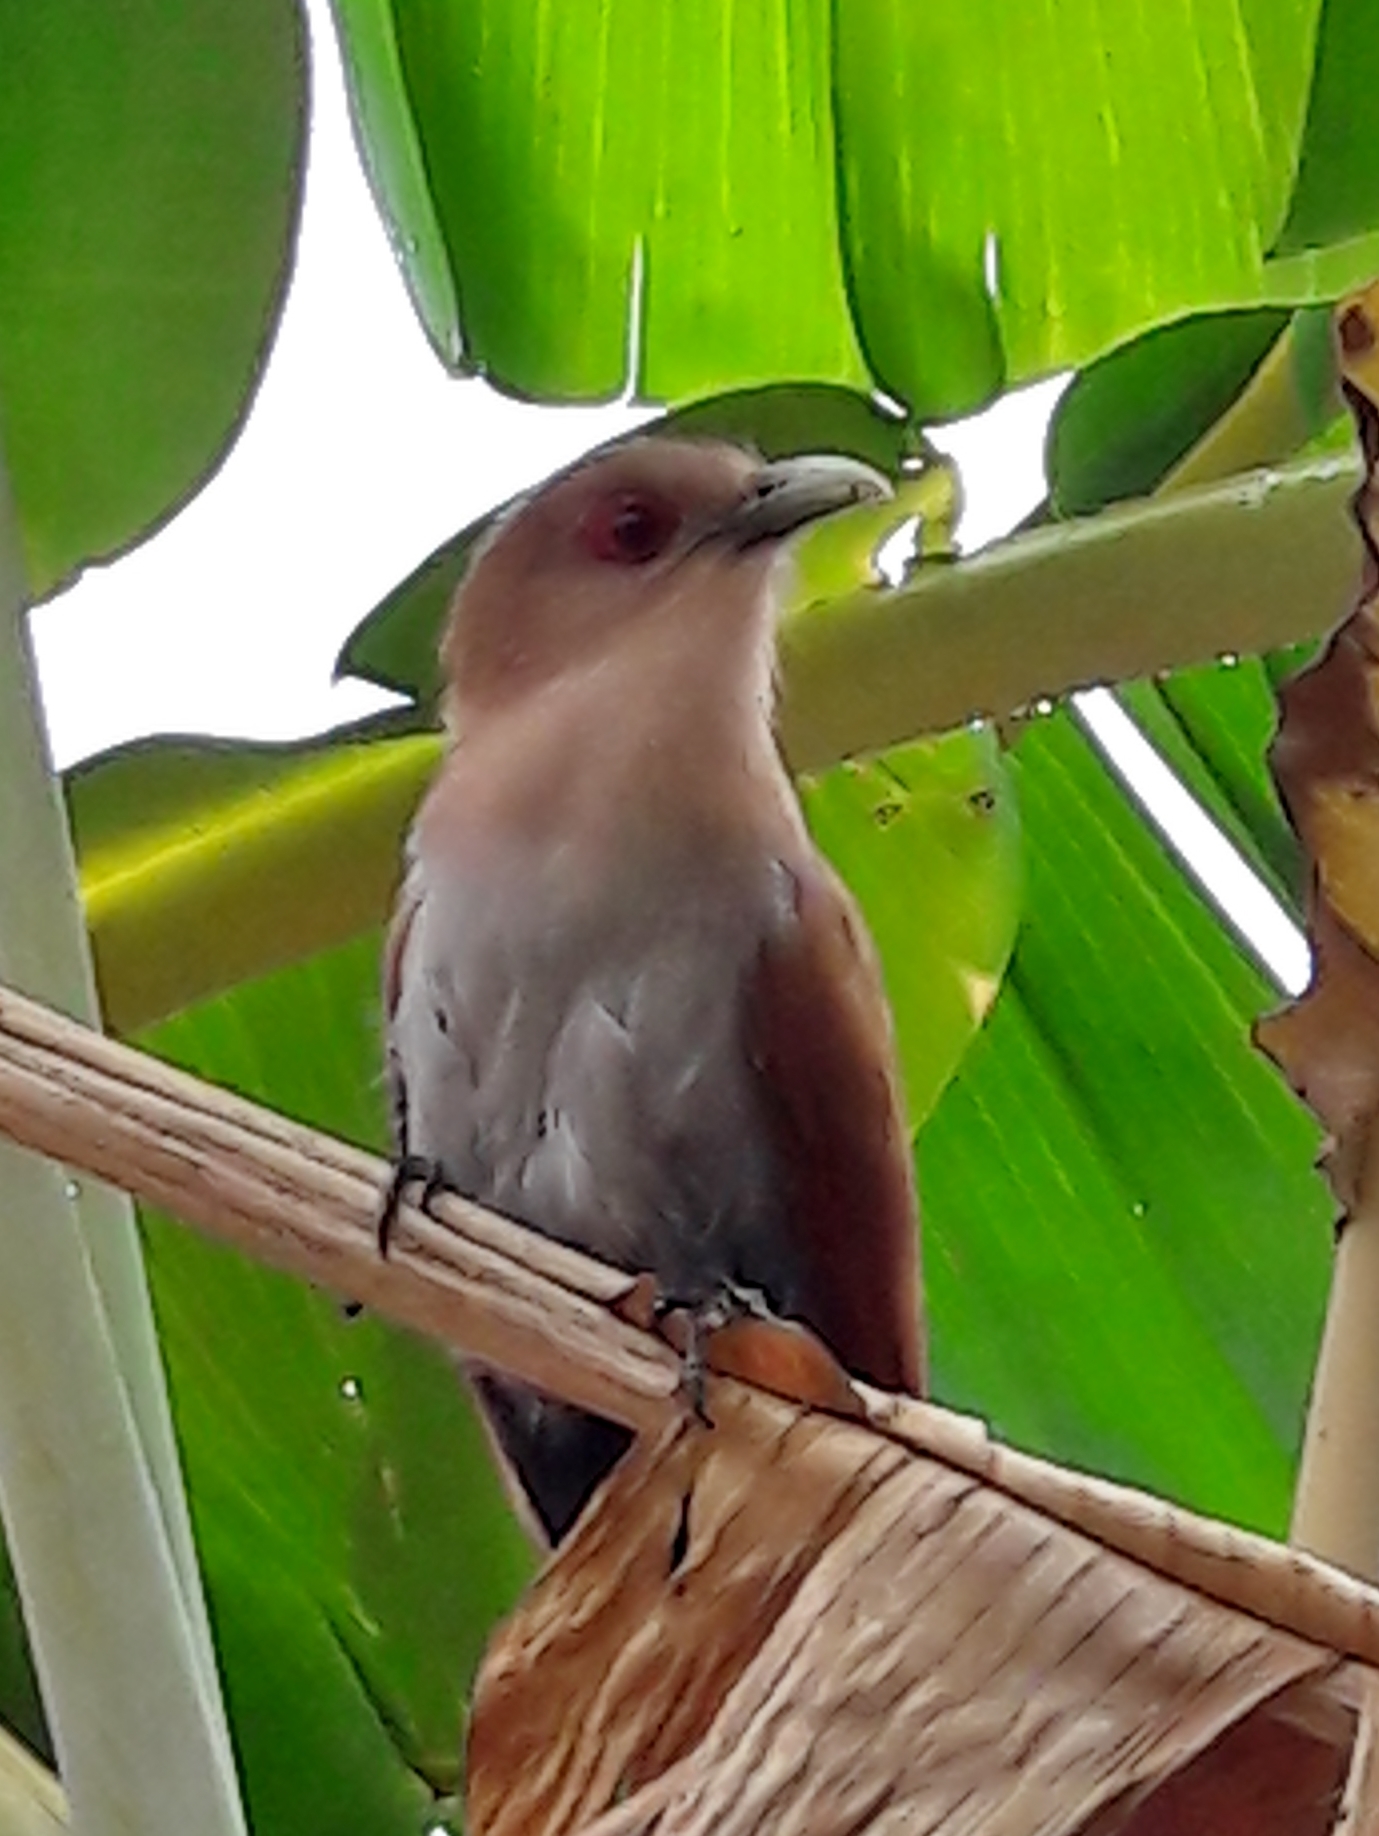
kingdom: Animalia
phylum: Chordata
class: Aves
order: Cuculiformes
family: Cuculidae
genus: Piaya
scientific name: Piaya cayana
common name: Squirrel cuckoo
